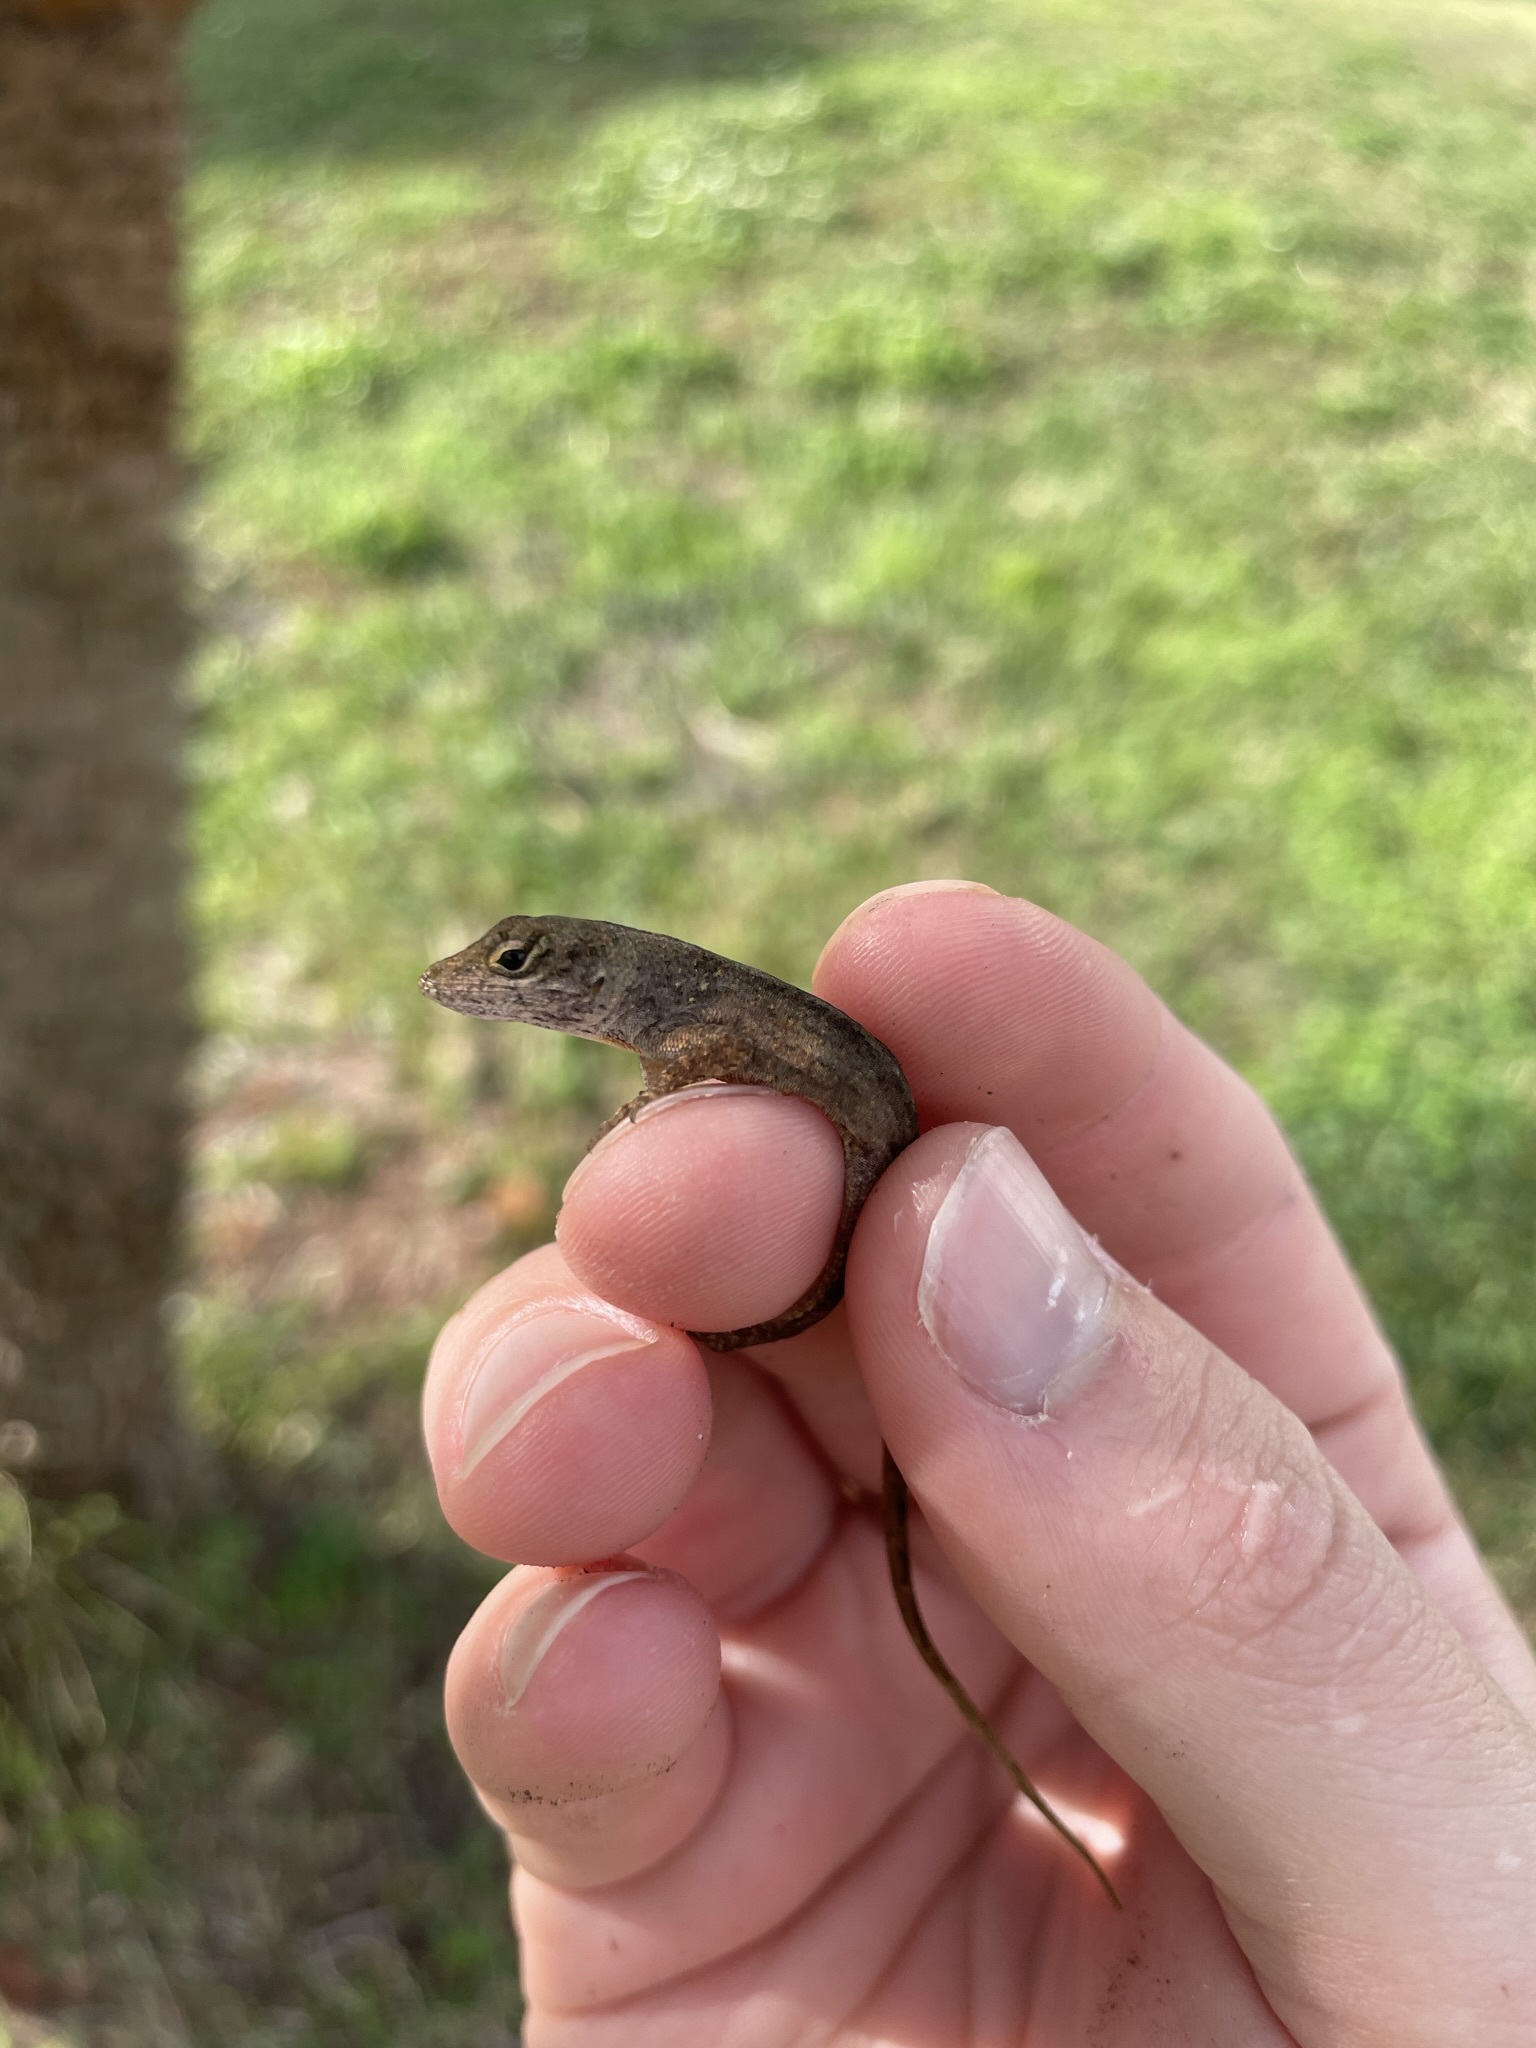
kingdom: Animalia
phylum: Chordata
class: Squamata
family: Dactyloidae
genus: Anolis
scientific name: Anolis sagrei
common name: Brown anole
